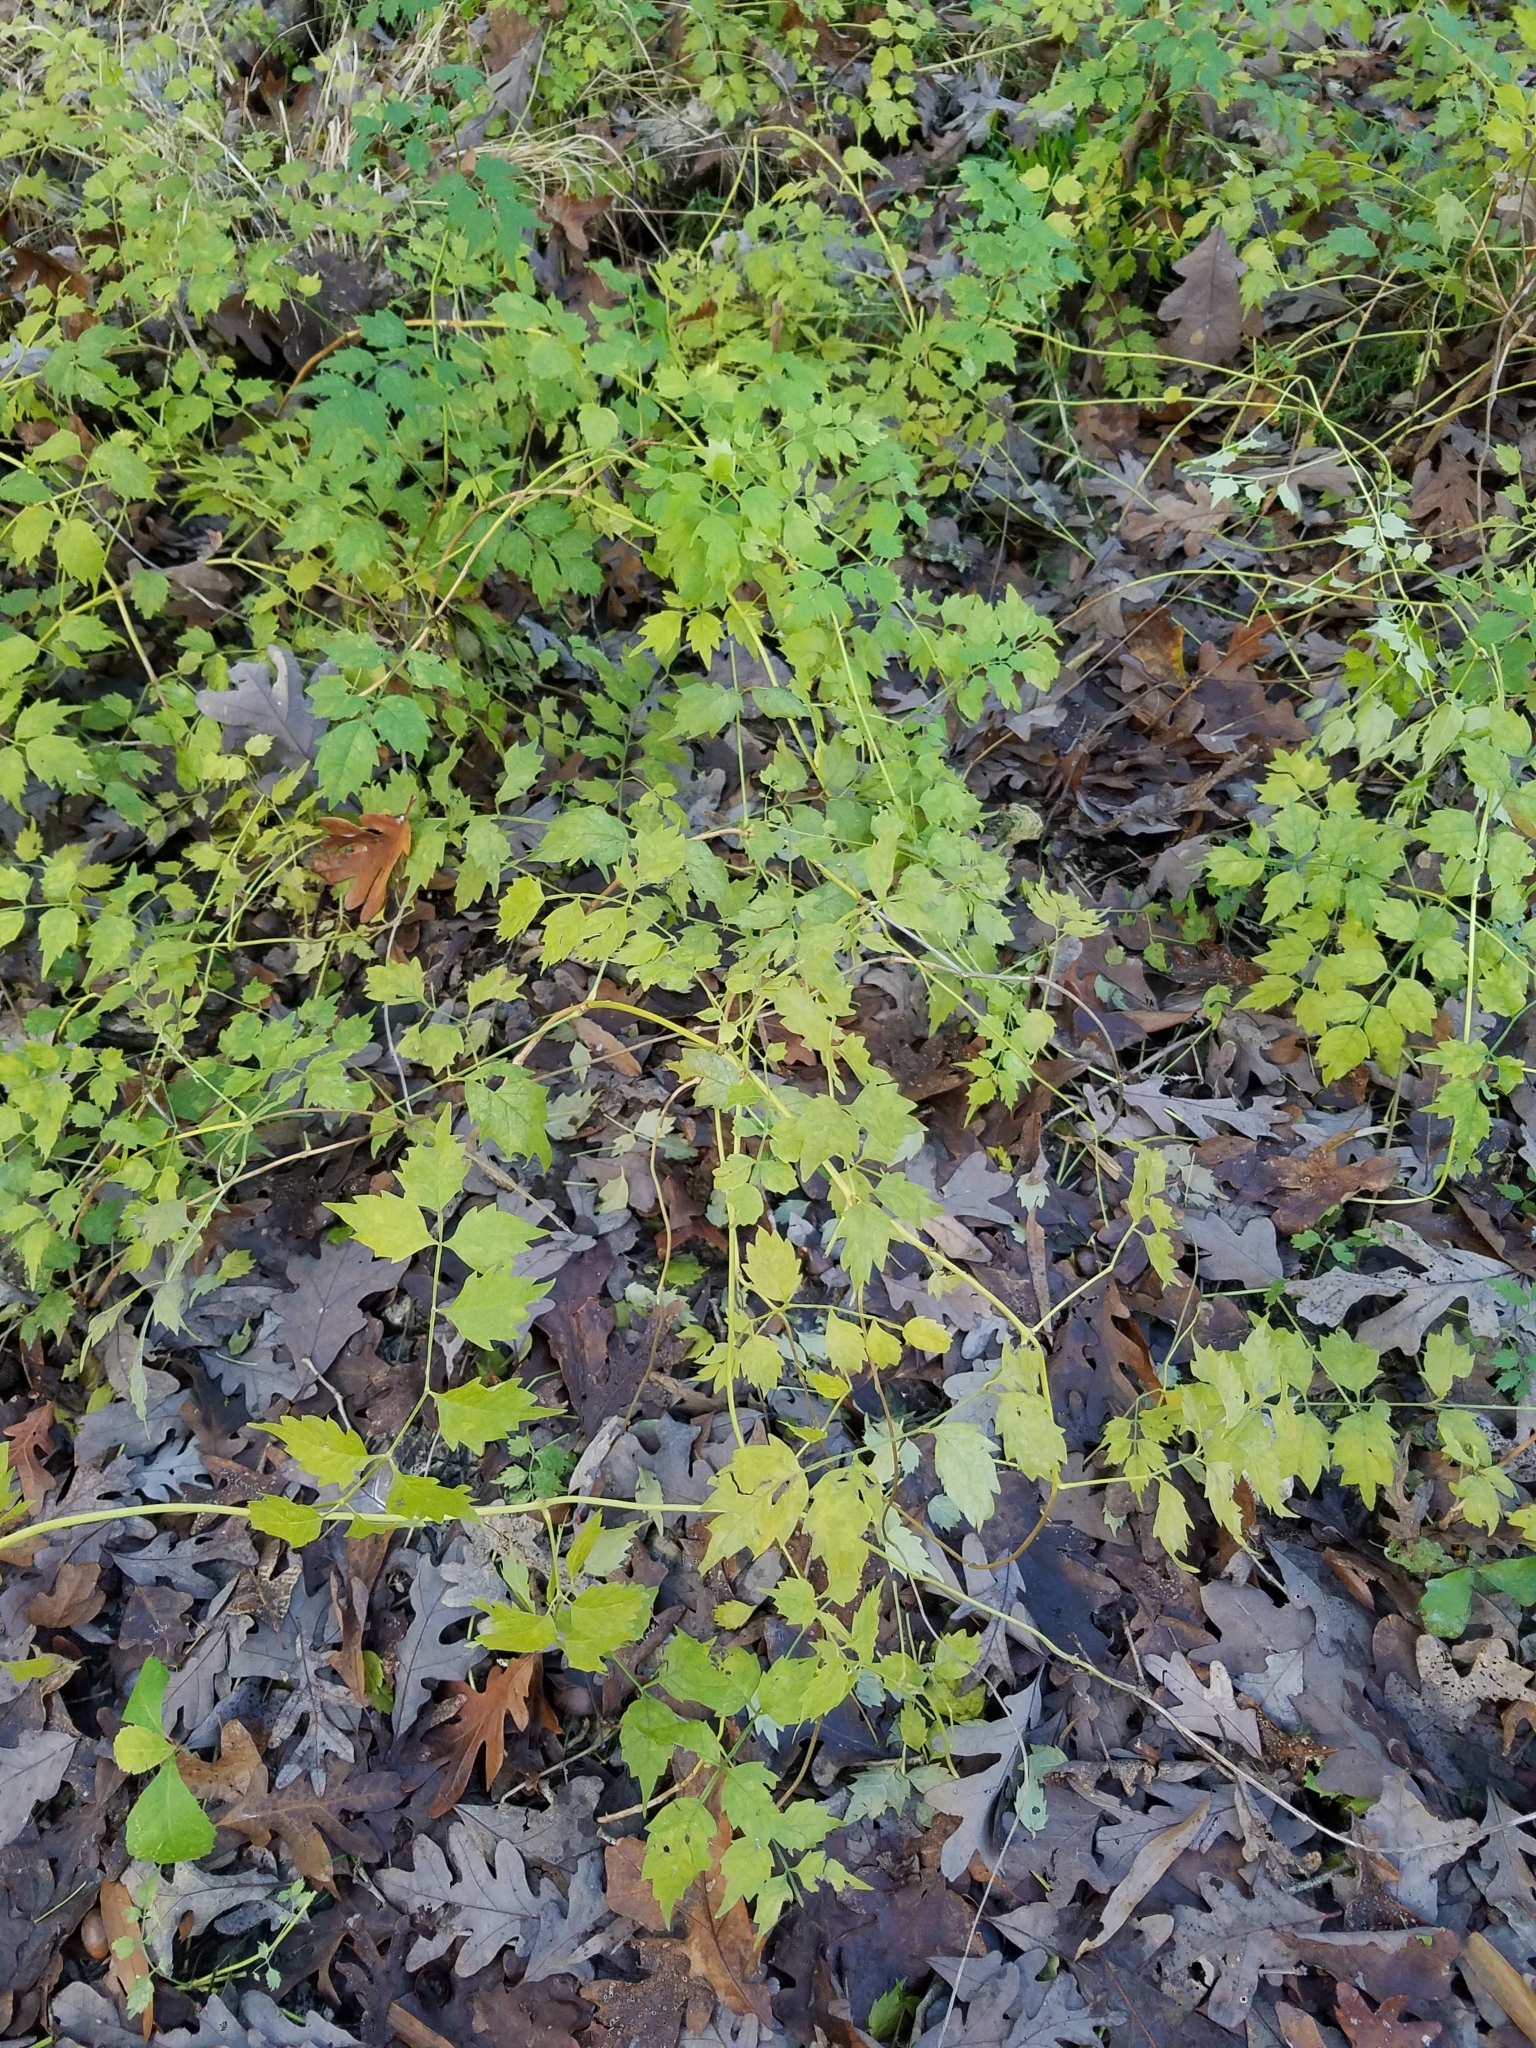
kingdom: Plantae
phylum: Tracheophyta
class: Magnoliopsida
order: Lamiales
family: Bignoniaceae
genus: Campsis
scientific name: Campsis radicans
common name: Trumpet-creeper
